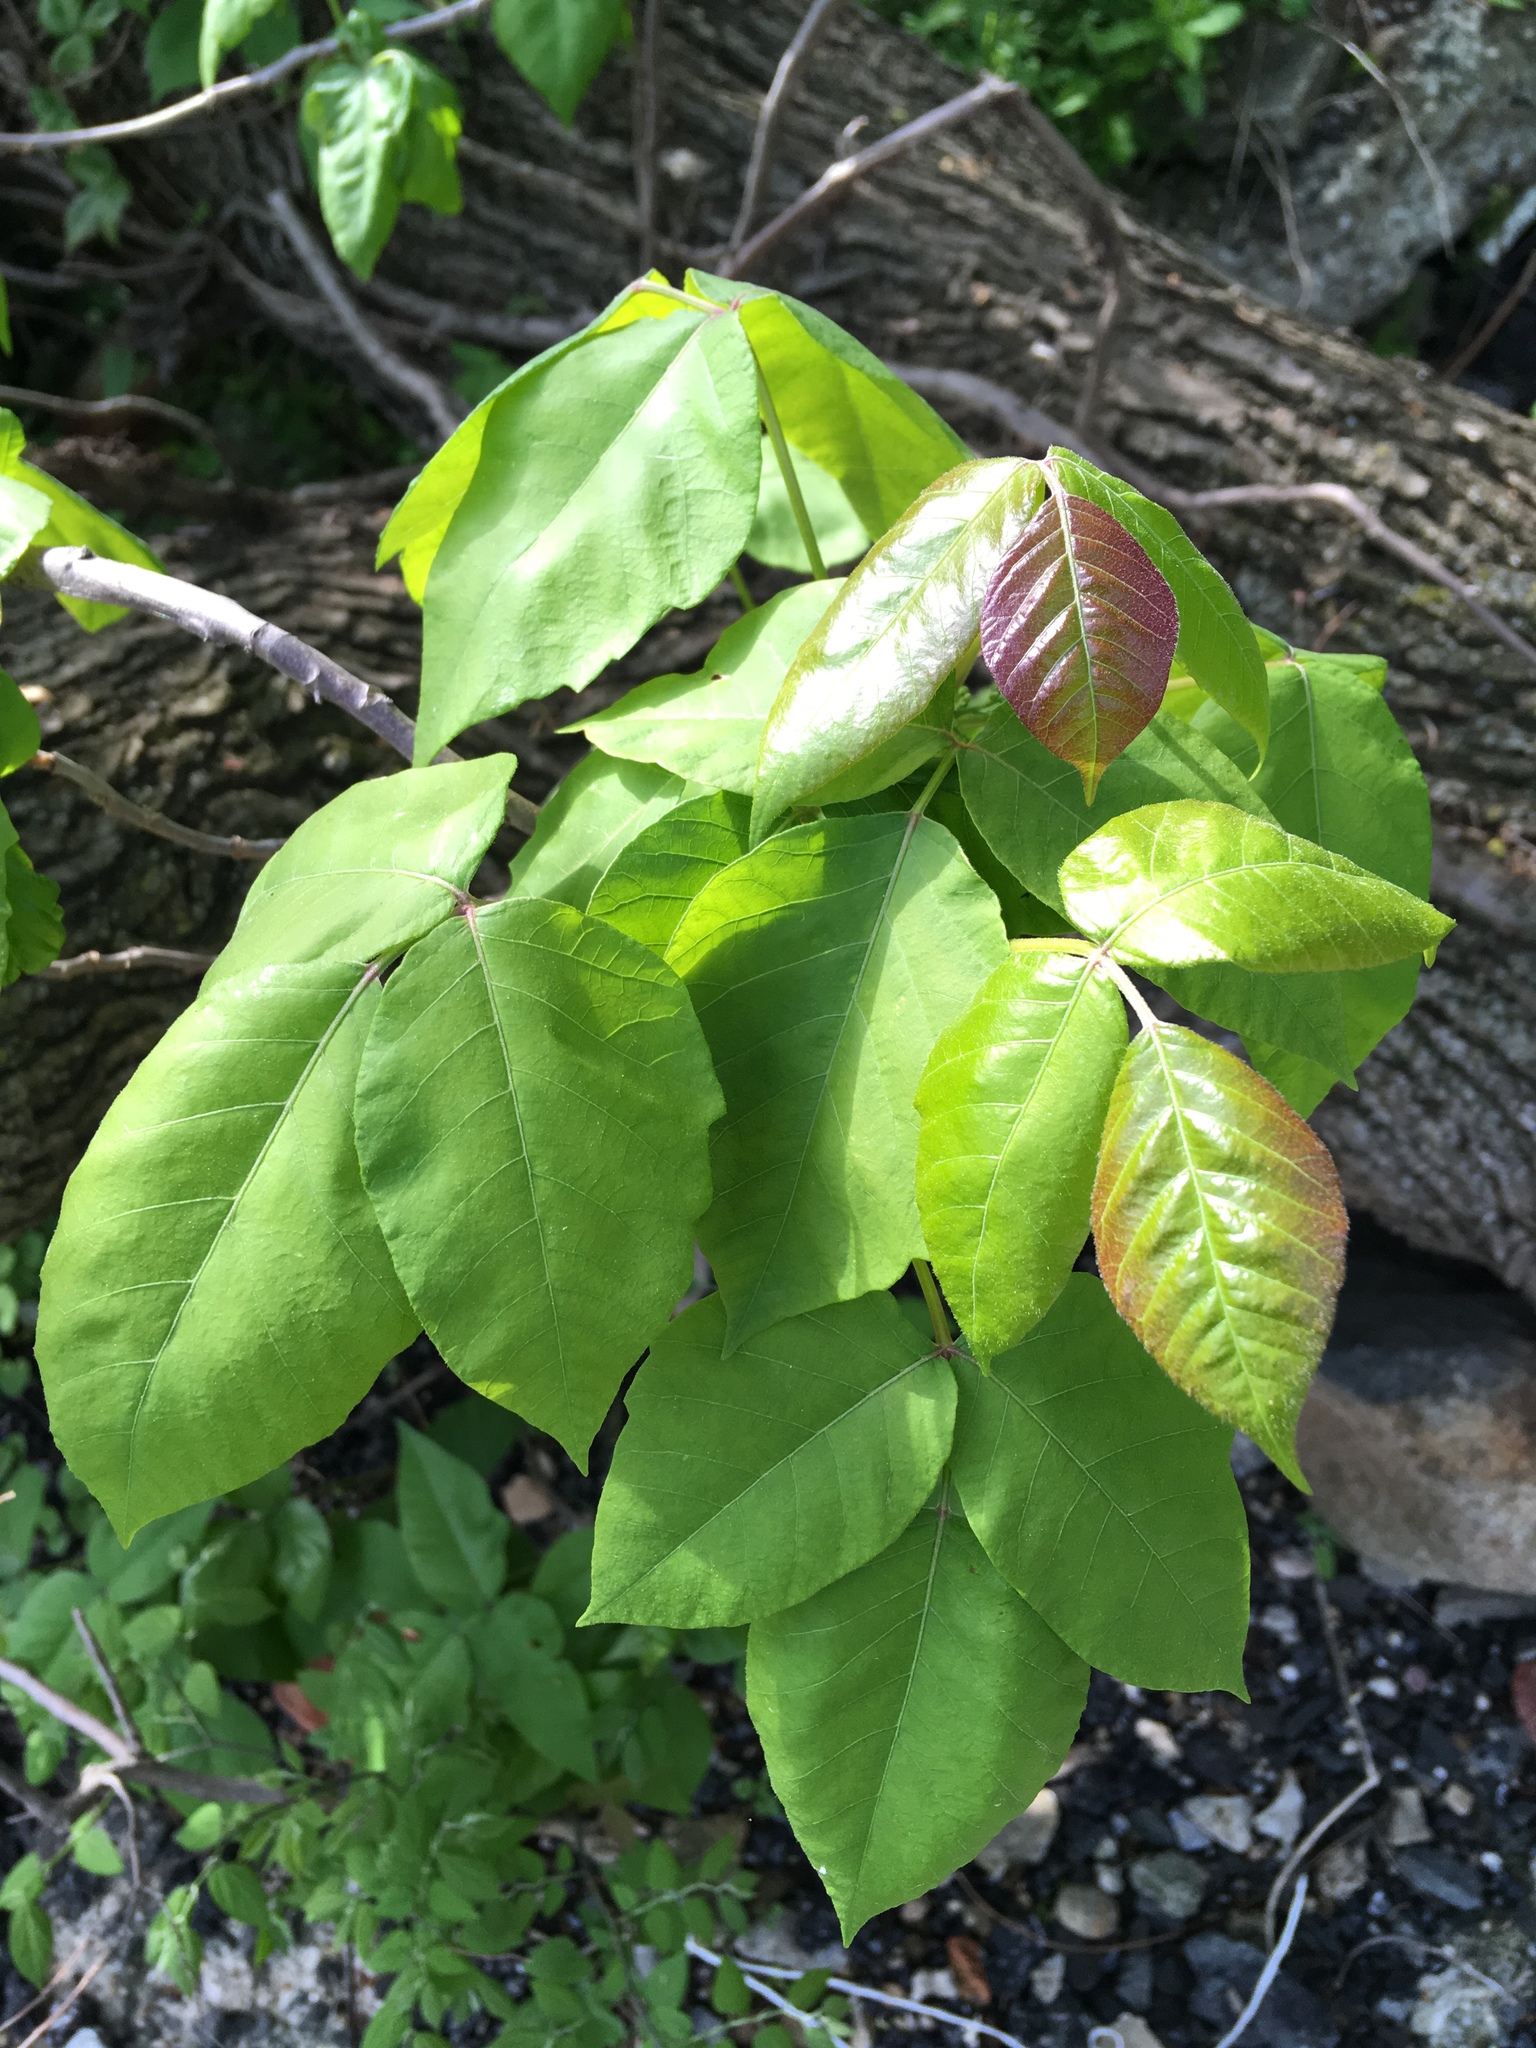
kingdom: Plantae
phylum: Tracheophyta
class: Magnoliopsida
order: Sapindales
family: Anacardiaceae
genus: Toxicodendron
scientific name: Toxicodendron radicans
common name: Poison ivy
